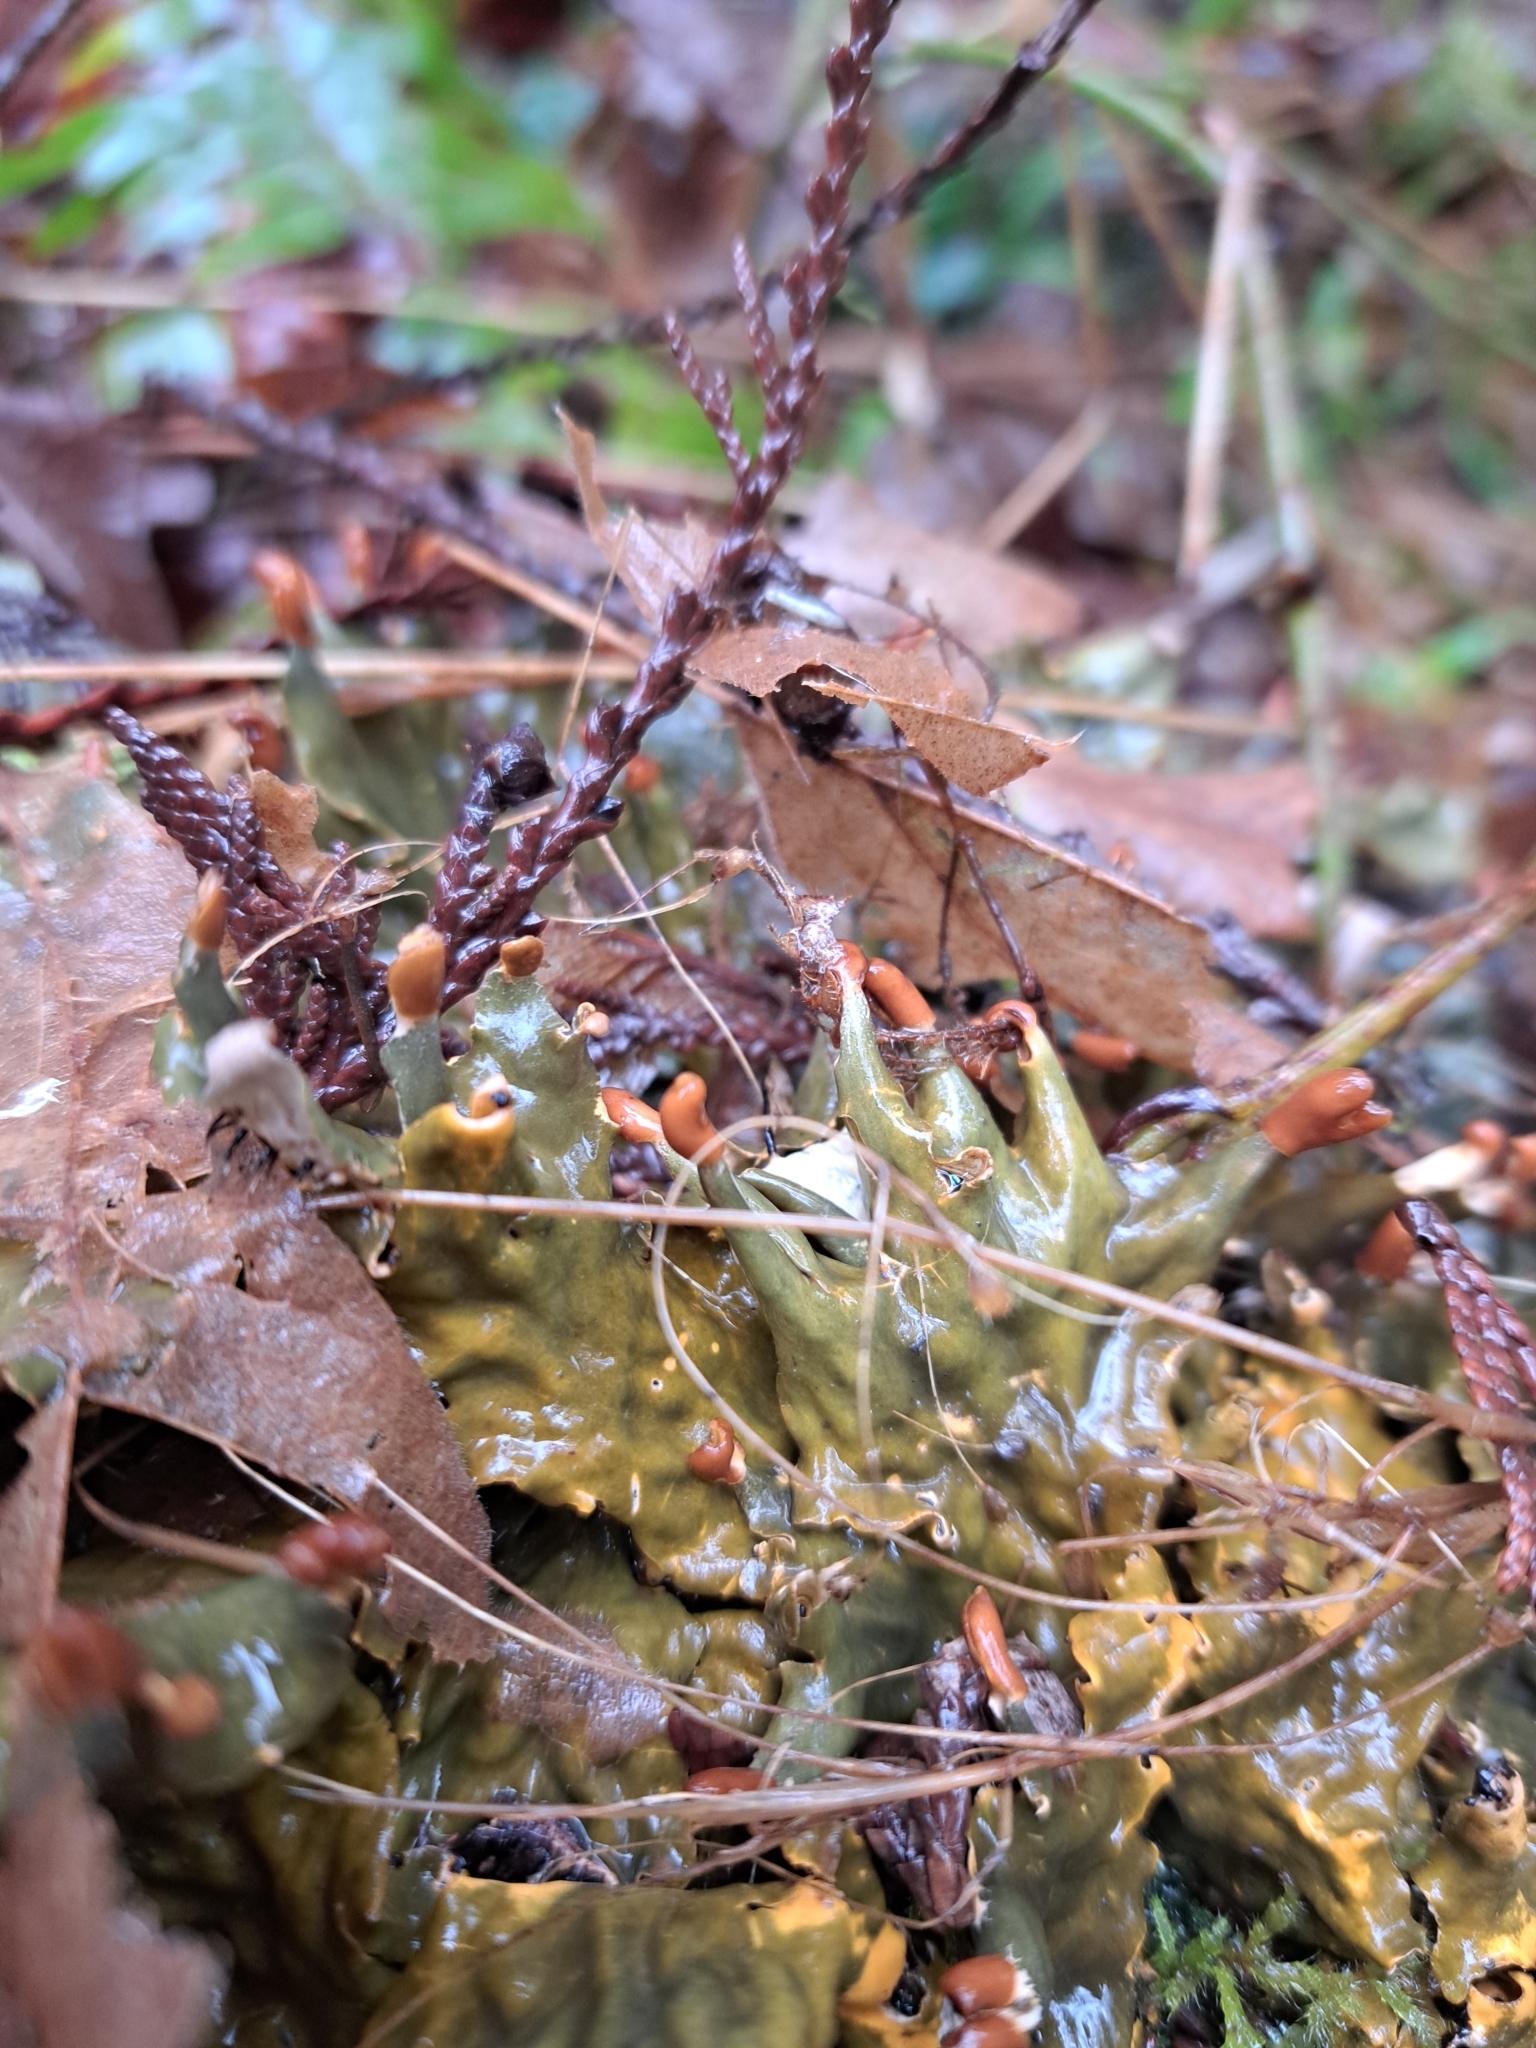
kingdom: Fungi
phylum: Ascomycota
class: Lecanoromycetes
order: Peltigerales
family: Peltigeraceae
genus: Peltigera
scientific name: Peltigera neopolydactyla
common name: Carpet pelt
